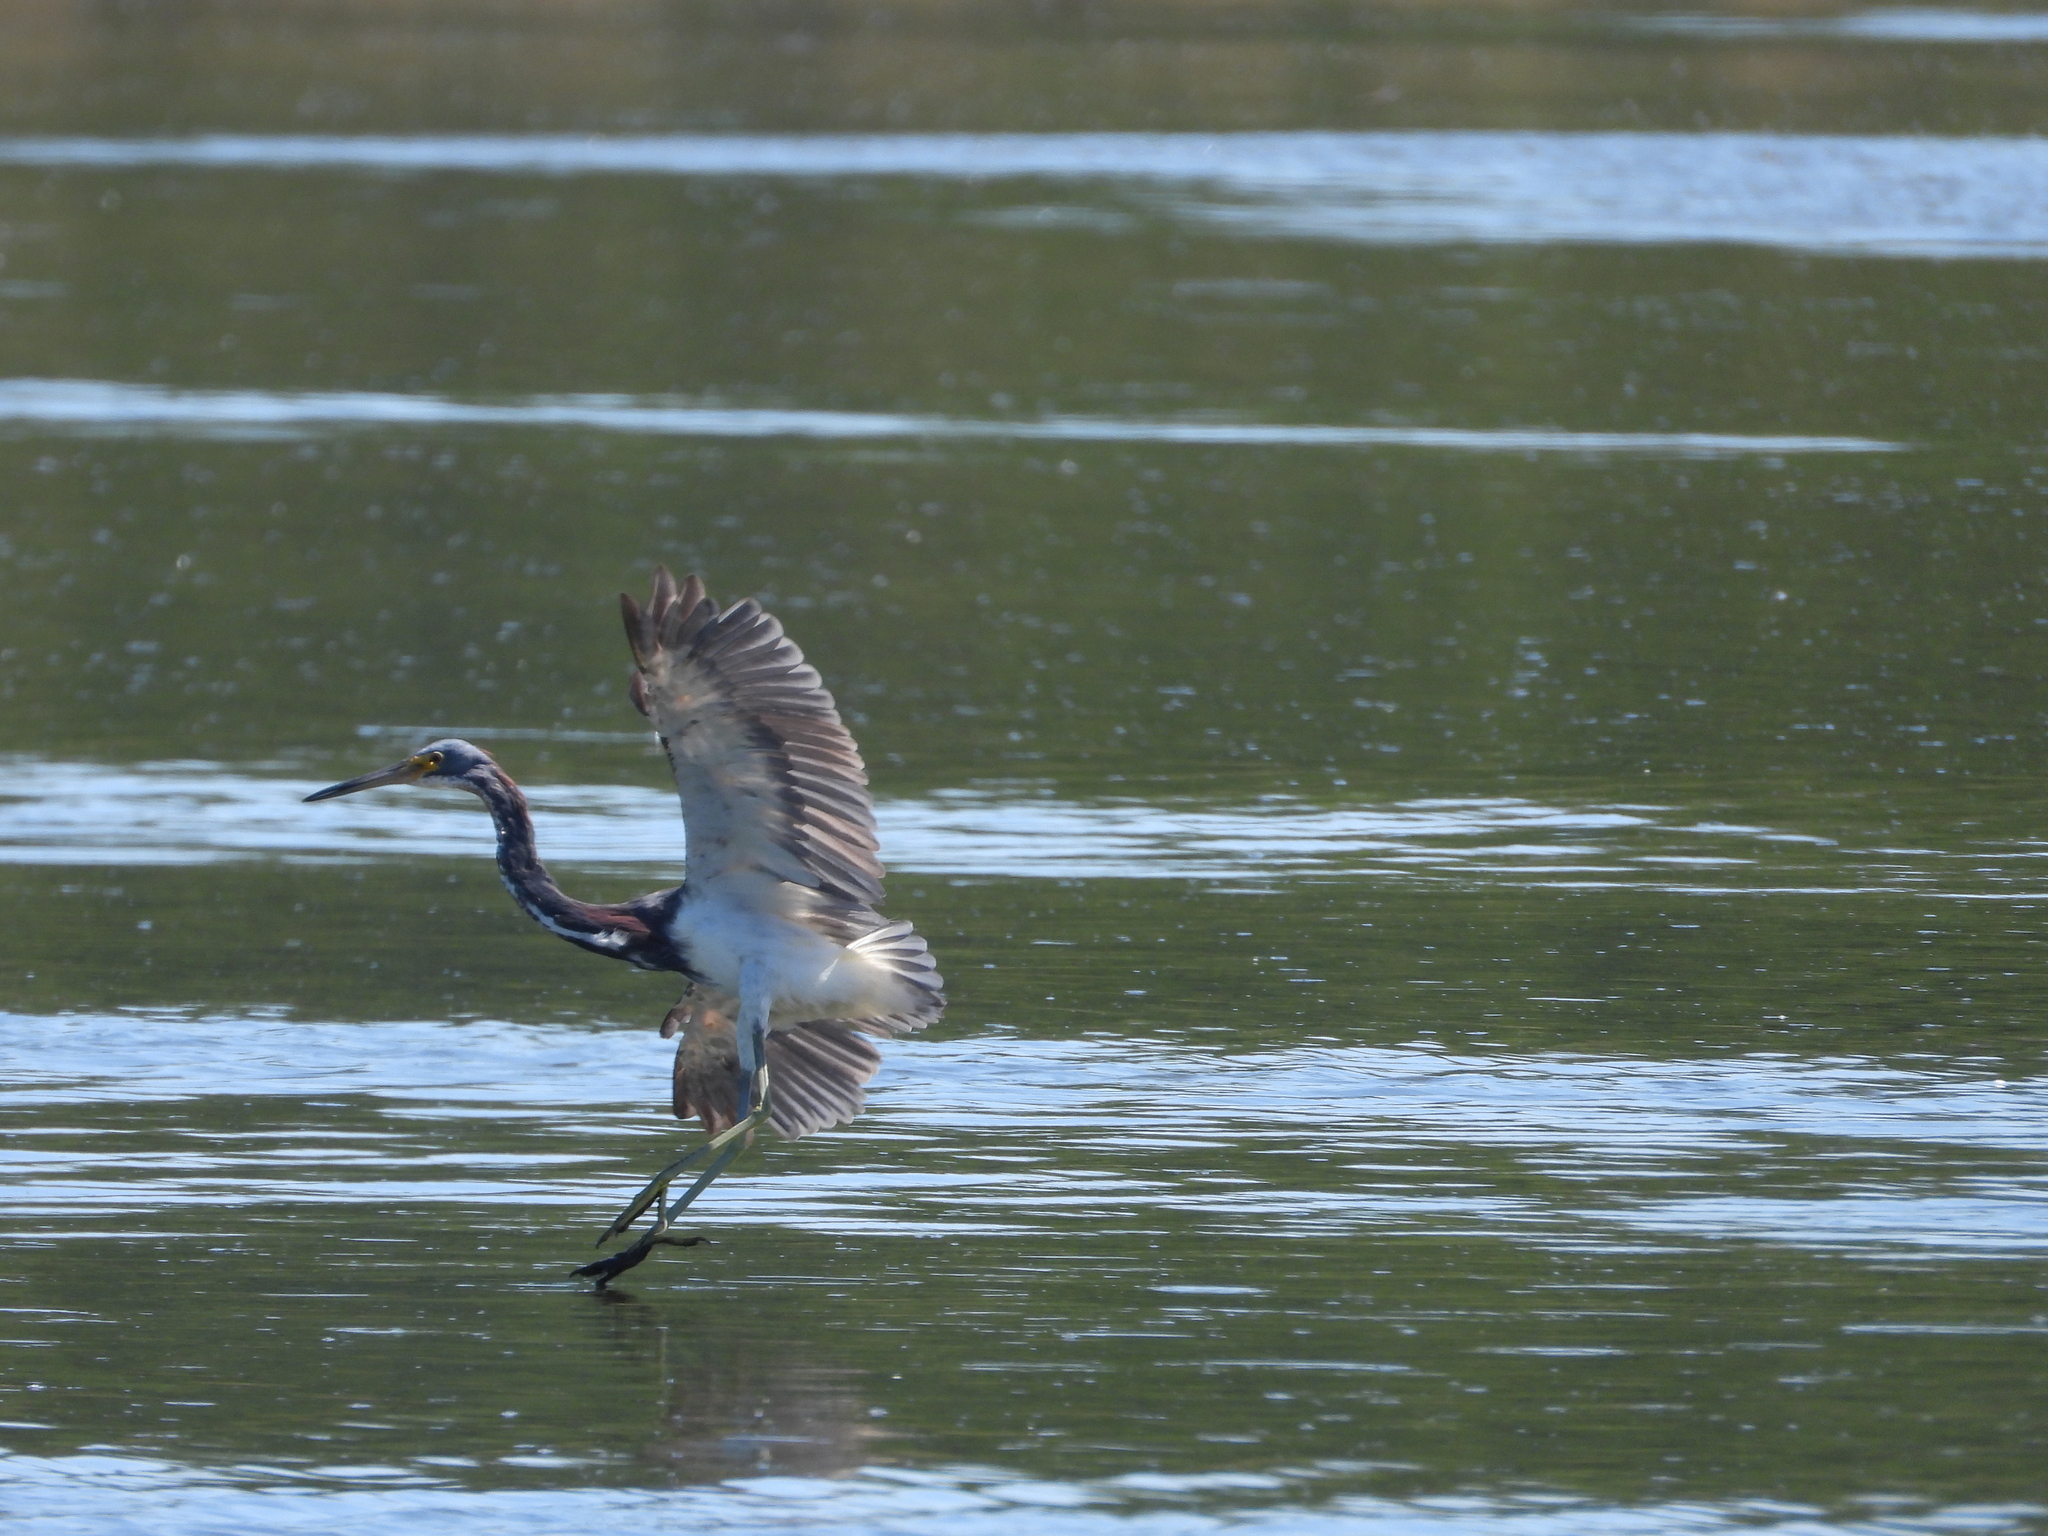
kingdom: Animalia
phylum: Chordata
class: Aves
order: Pelecaniformes
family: Ardeidae
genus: Egretta
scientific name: Egretta tricolor
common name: Tricolored heron
